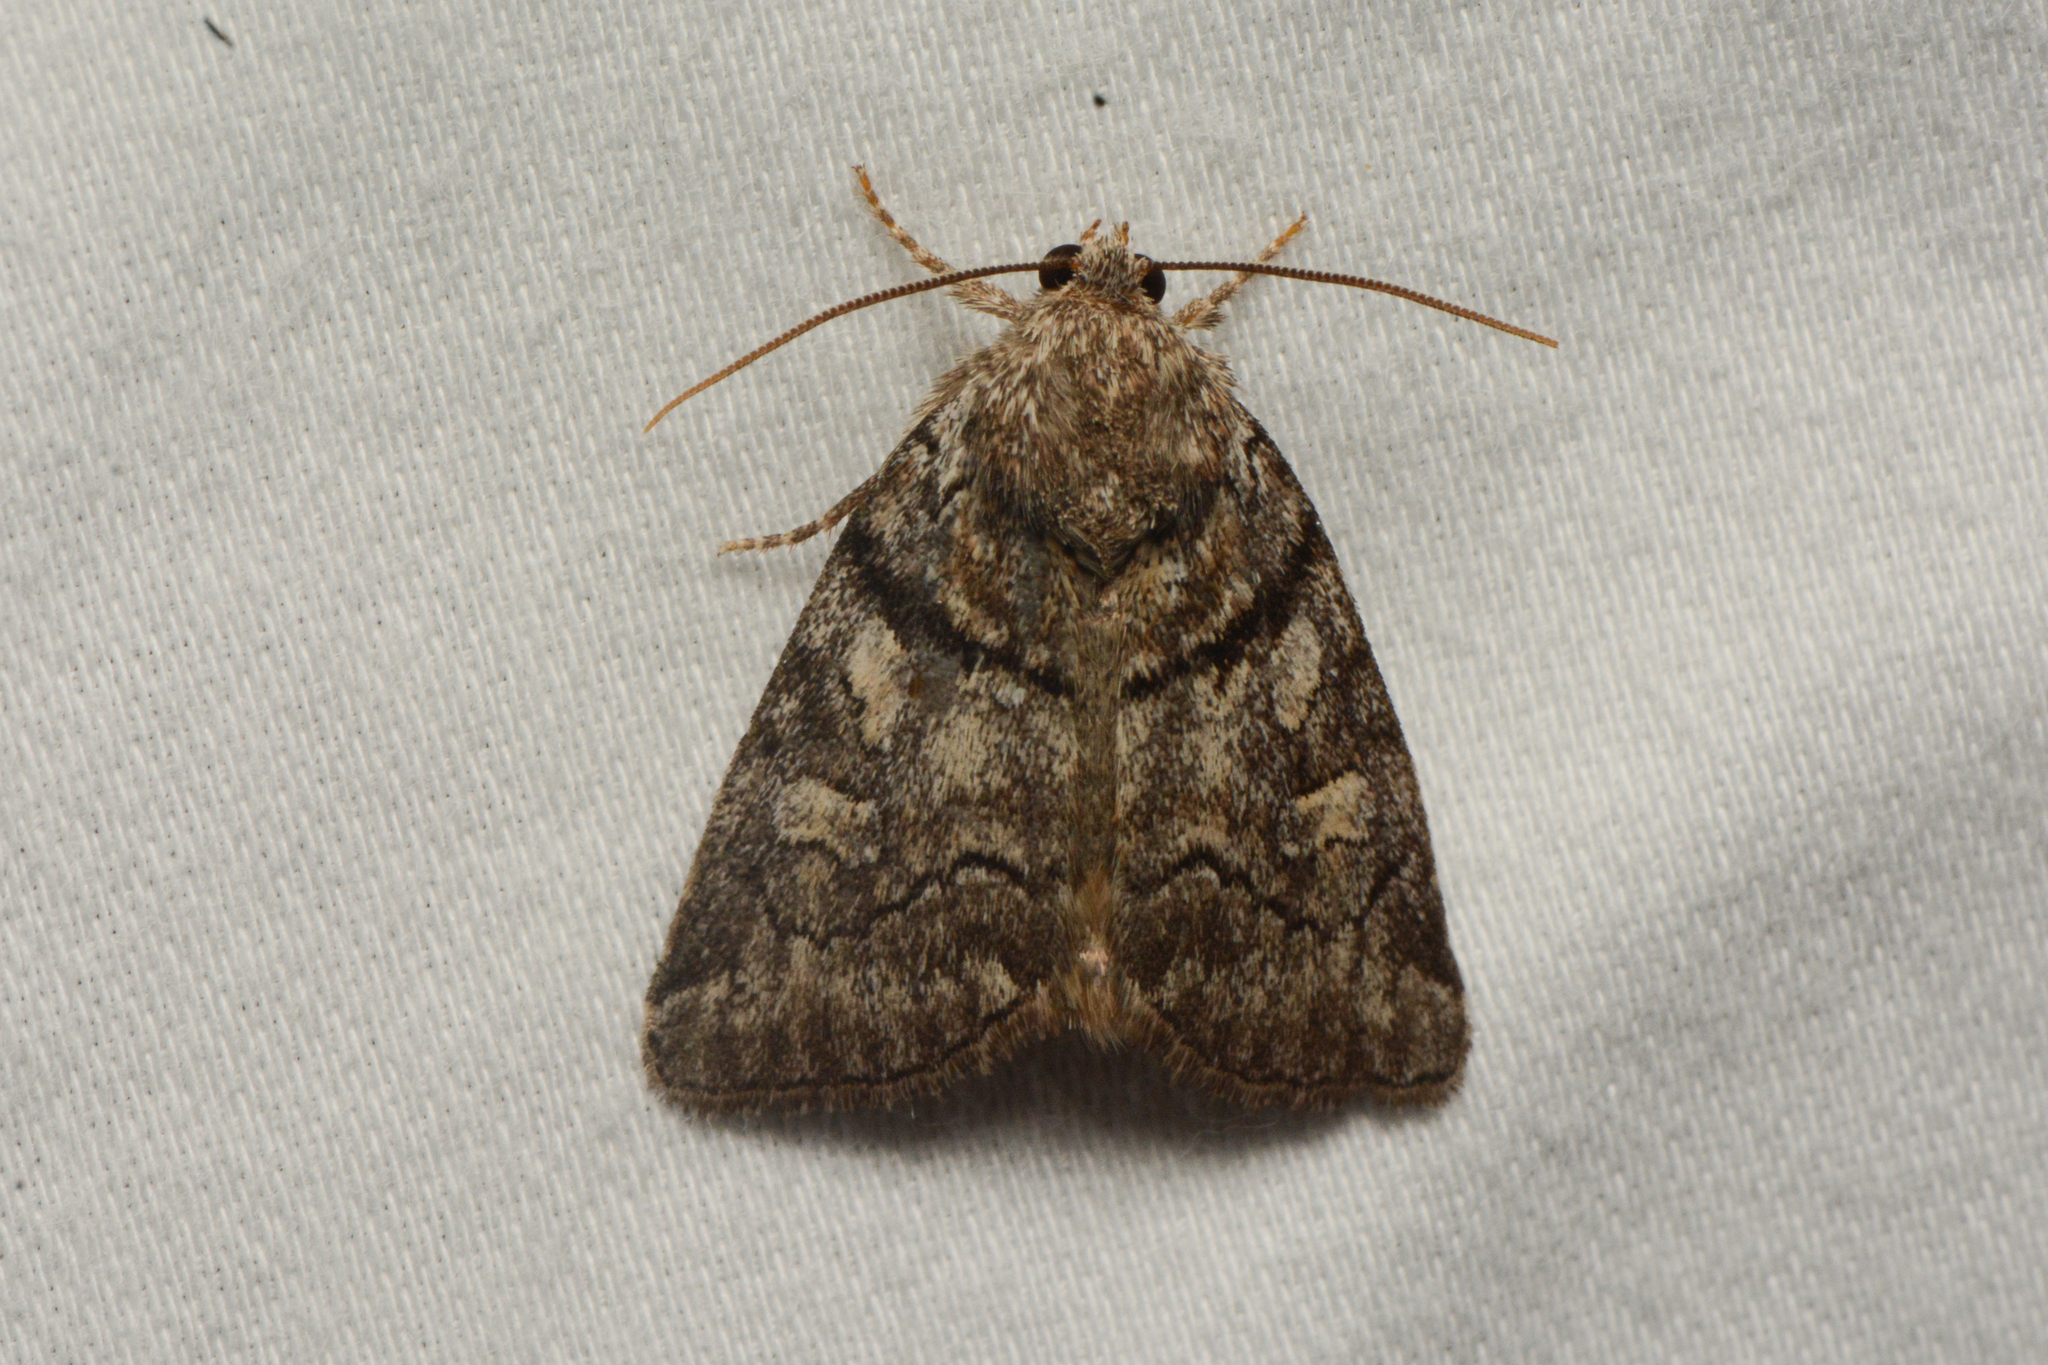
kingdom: Animalia
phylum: Arthropoda
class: Insecta
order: Lepidoptera
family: Noctuidae
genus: Cosmia
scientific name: Cosmia praeacuta
